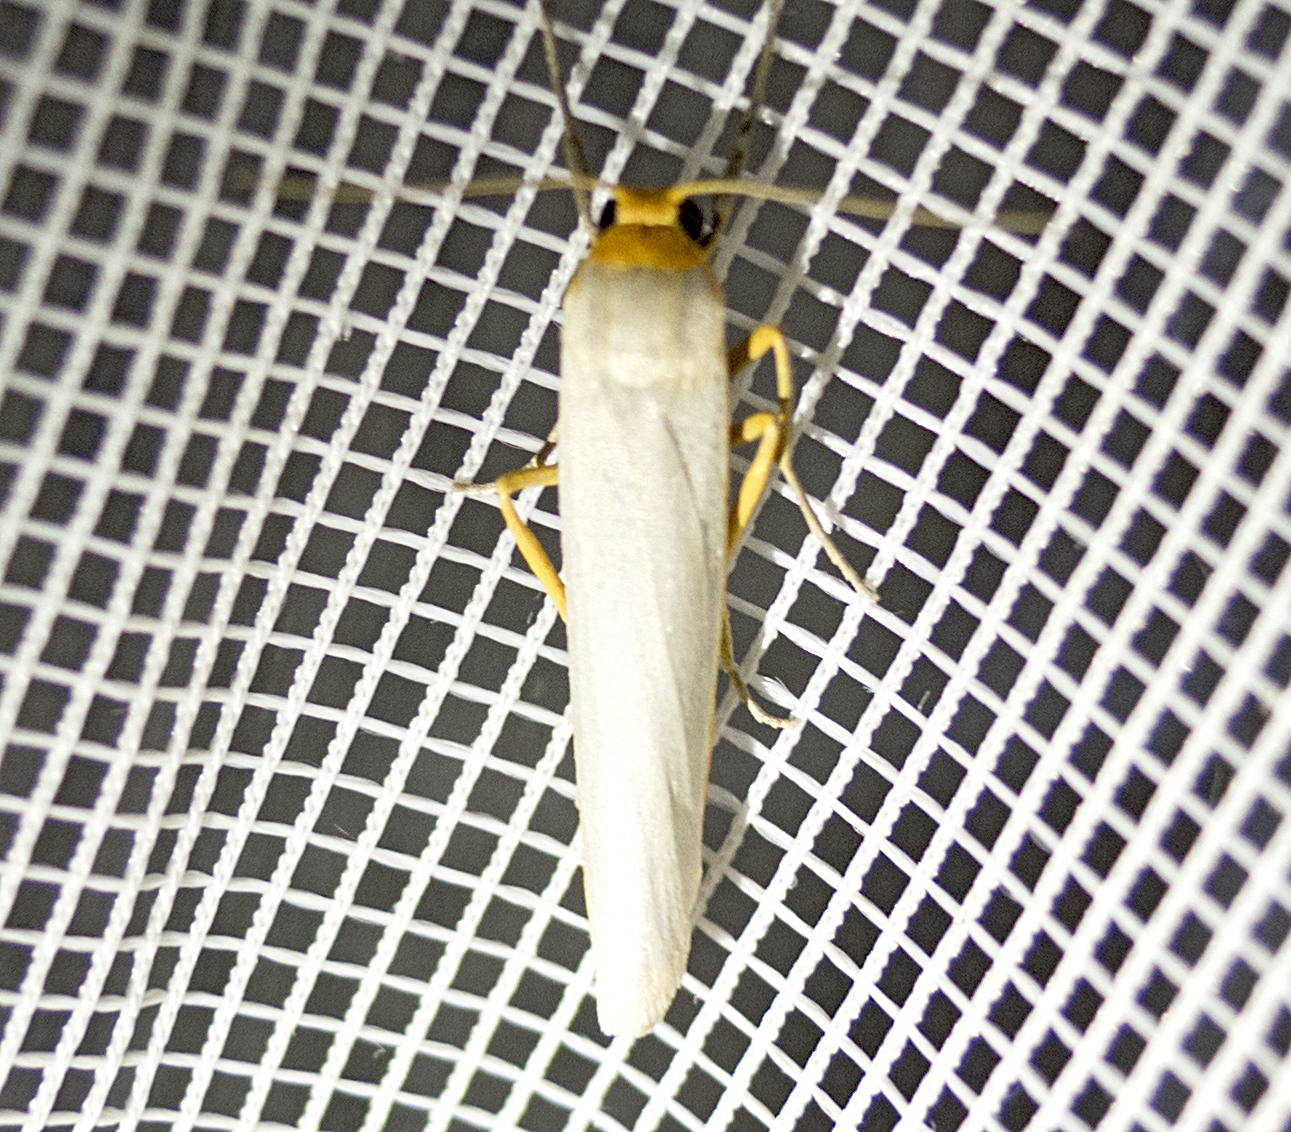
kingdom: Animalia
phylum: Arthropoda
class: Insecta
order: Lepidoptera
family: Erebidae
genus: Eilema
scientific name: Eilema caniola
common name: Hoary footman
